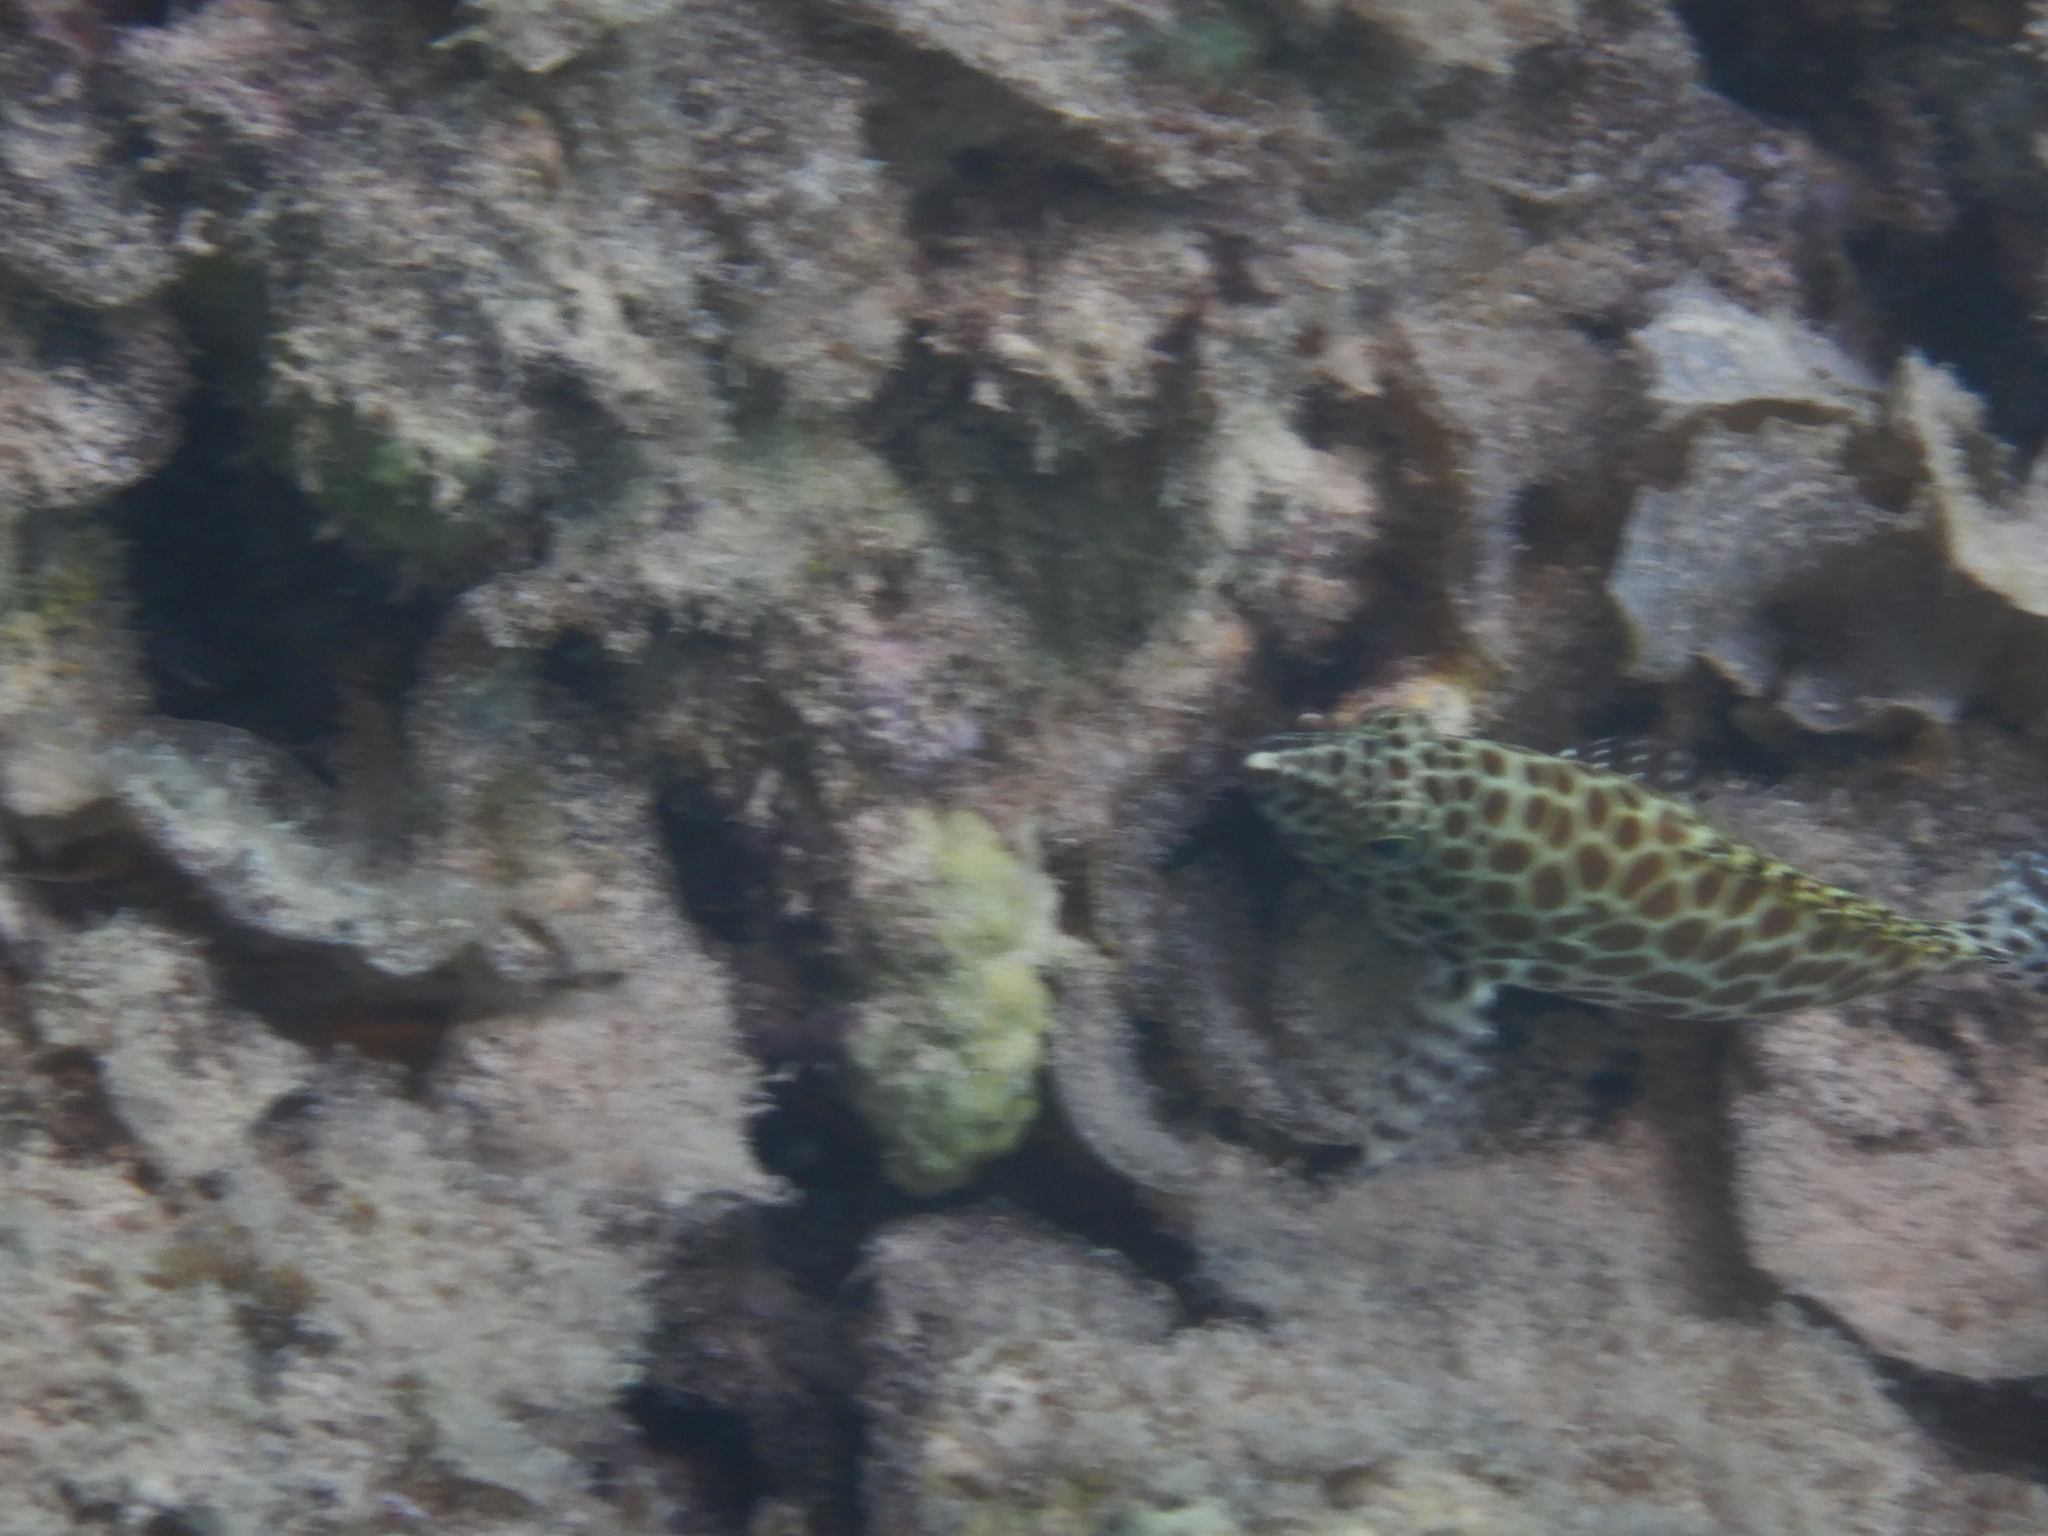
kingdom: Animalia
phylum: Chordata
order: Perciformes
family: Serranidae
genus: Epinephelus
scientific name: Epinephelus merra
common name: Honeycomb grouper
